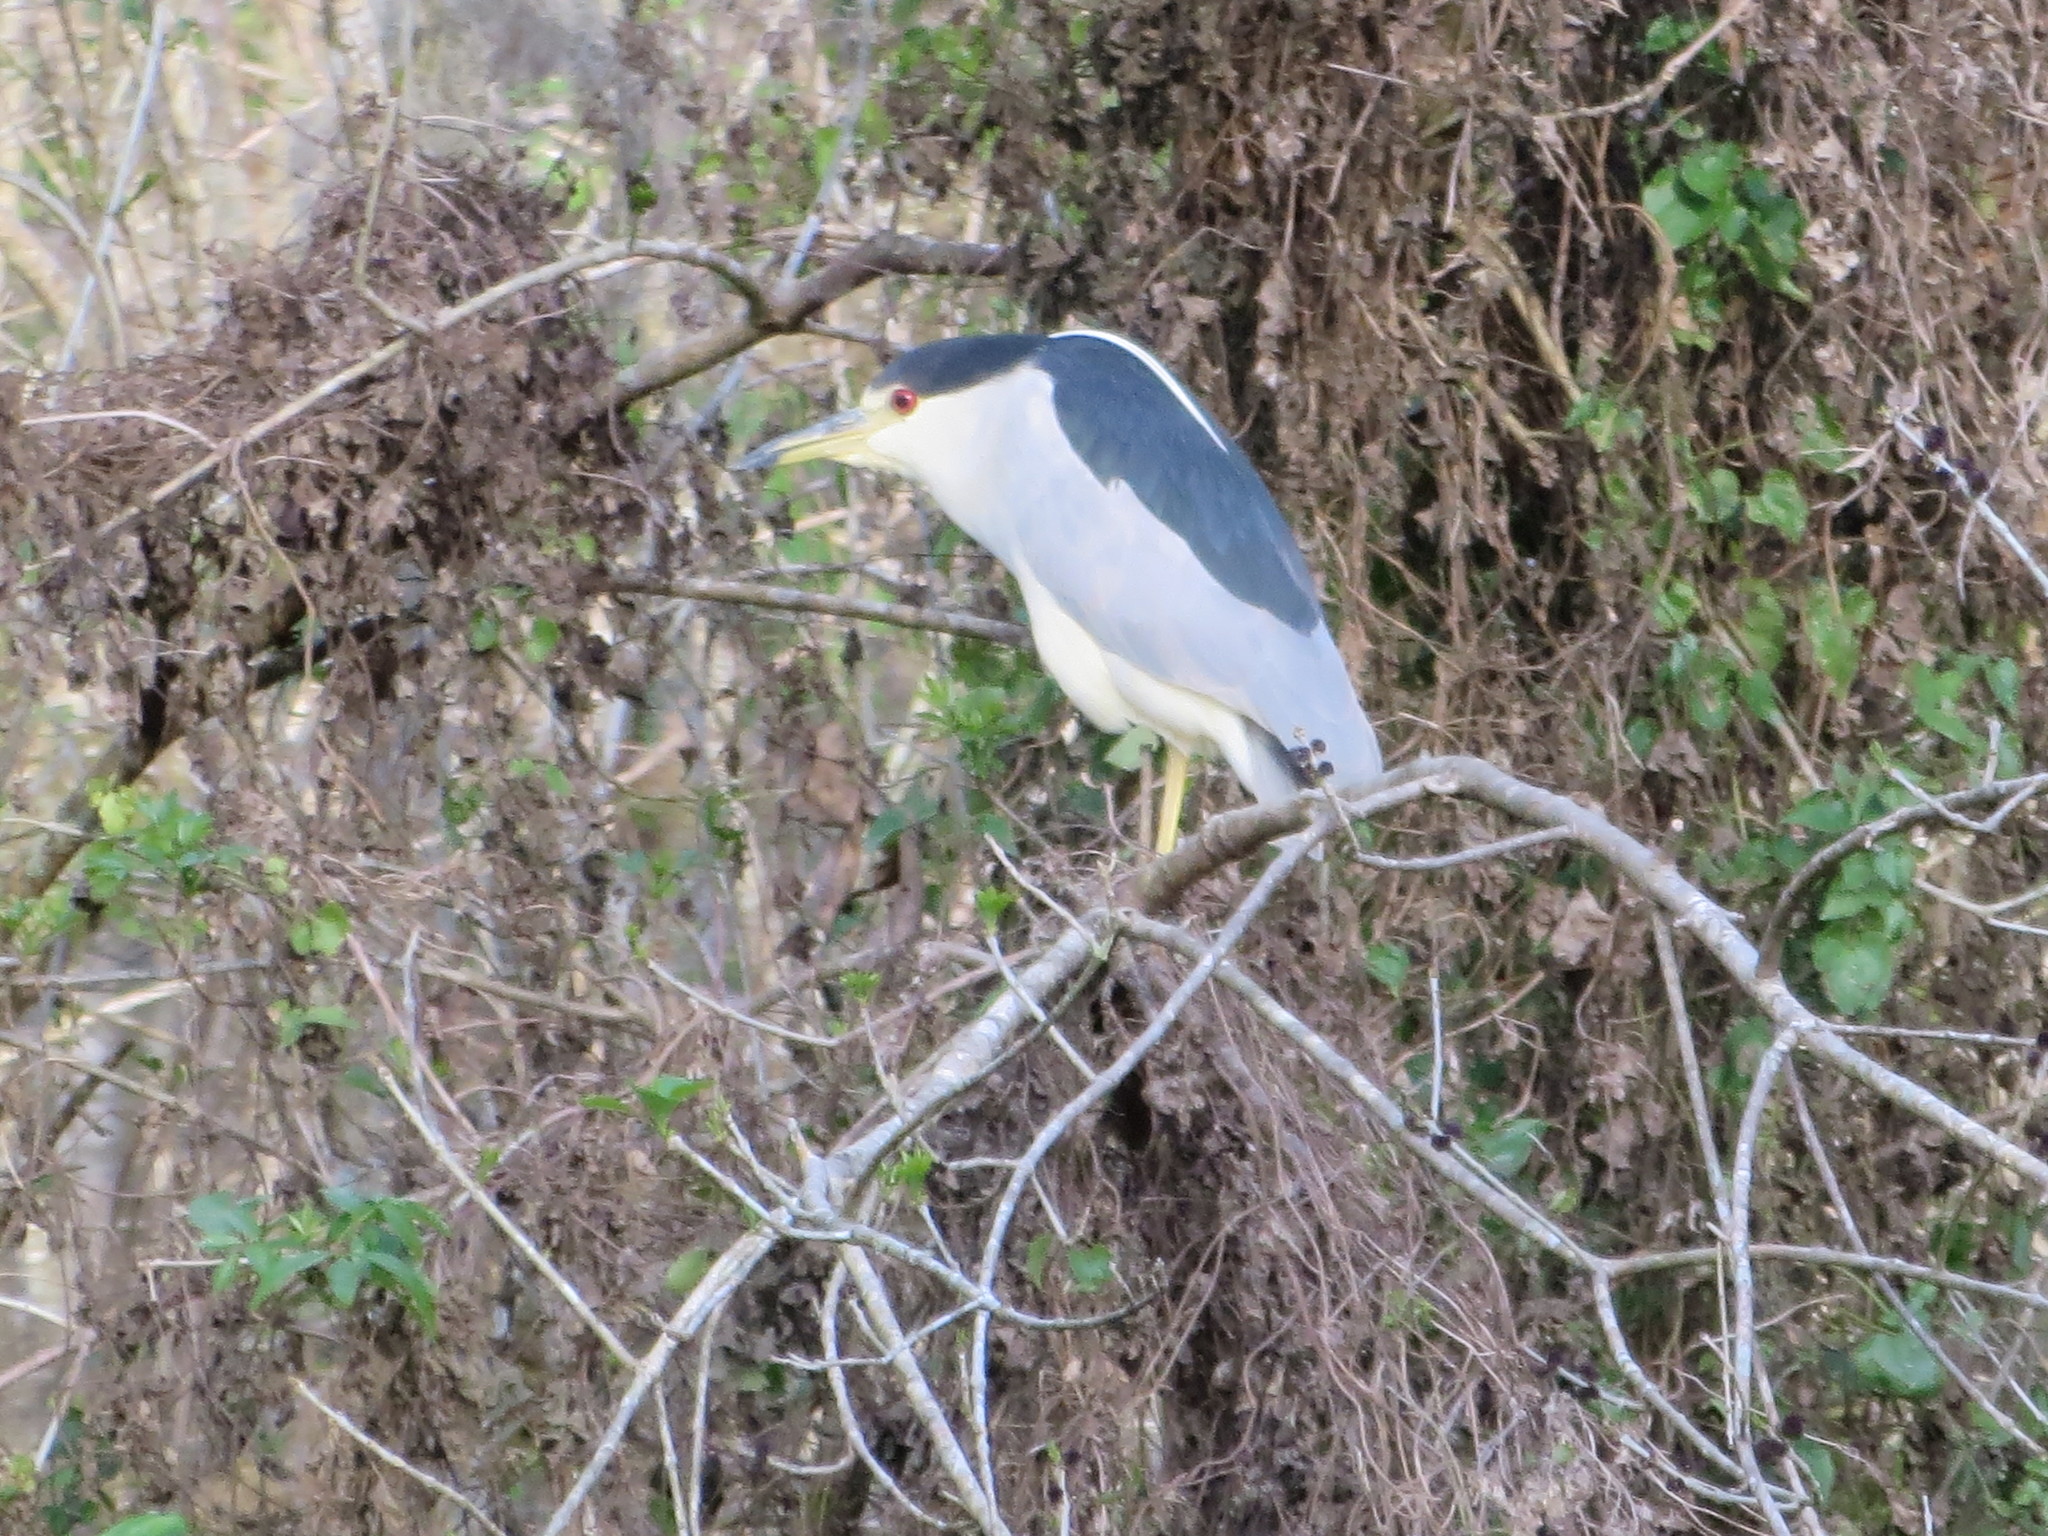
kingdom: Animalia
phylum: Chordata
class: Aves
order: Pelecaniformes
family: Ardeidae
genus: Nycticorax
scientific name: Nycticorax nycticorax
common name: Black-crowned night heron
